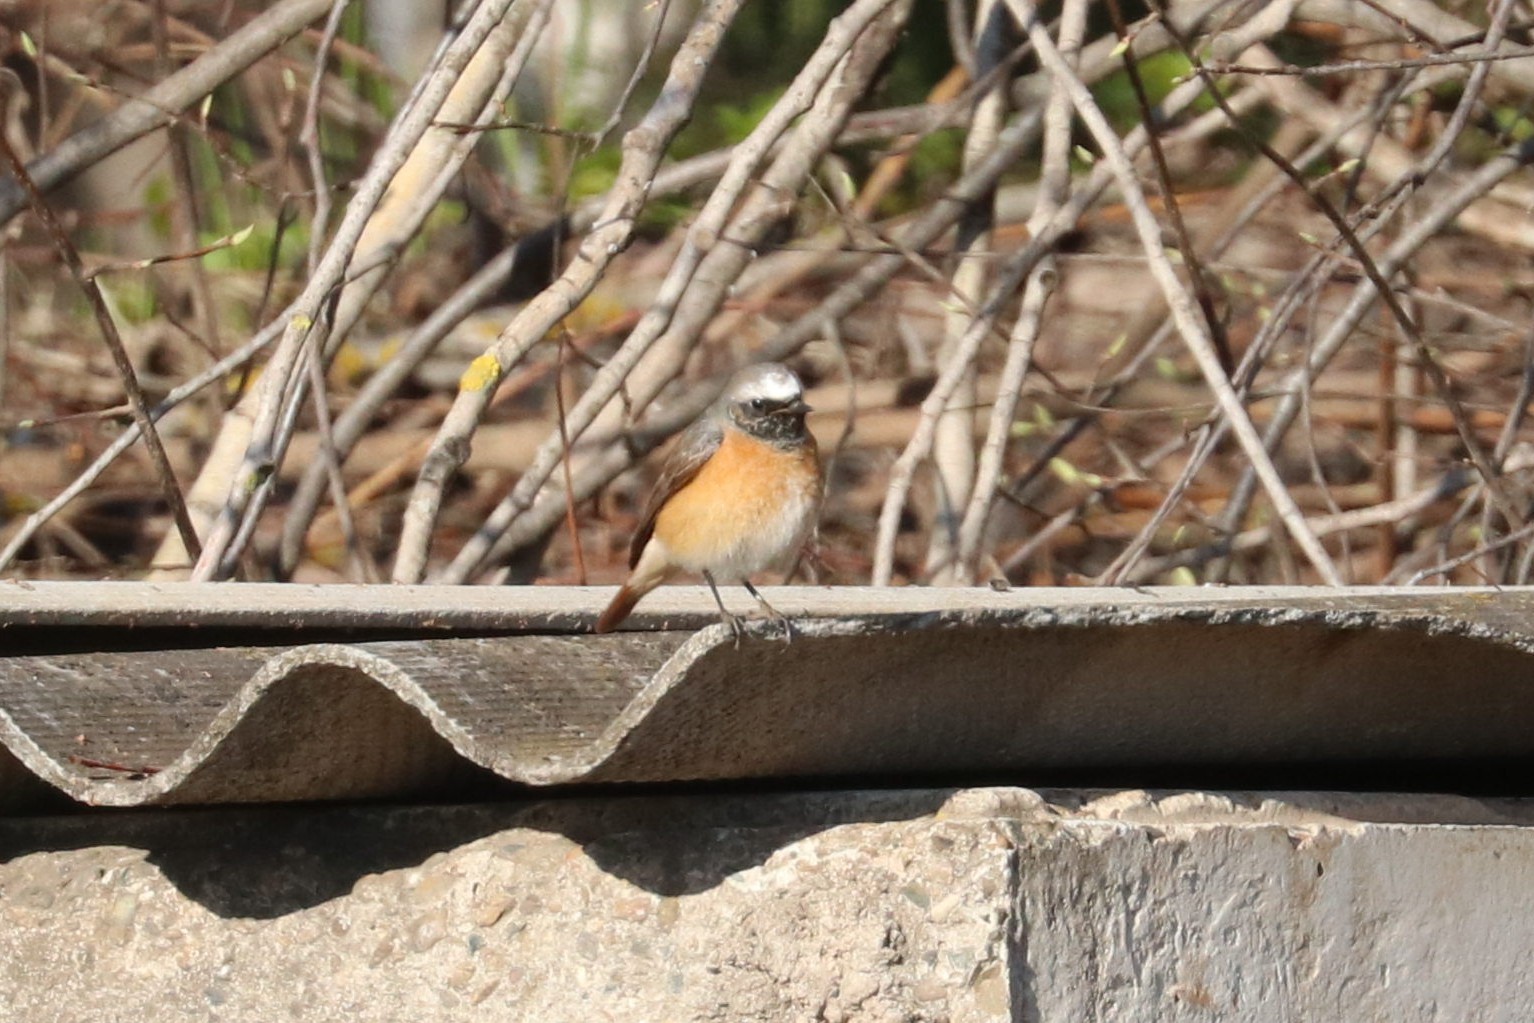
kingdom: Animalia
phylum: Chordata
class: Aves
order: Passeriformes
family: Muscicapidae
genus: Phoenicurus
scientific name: Phoenicurus phoenicurus
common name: Common redstart
